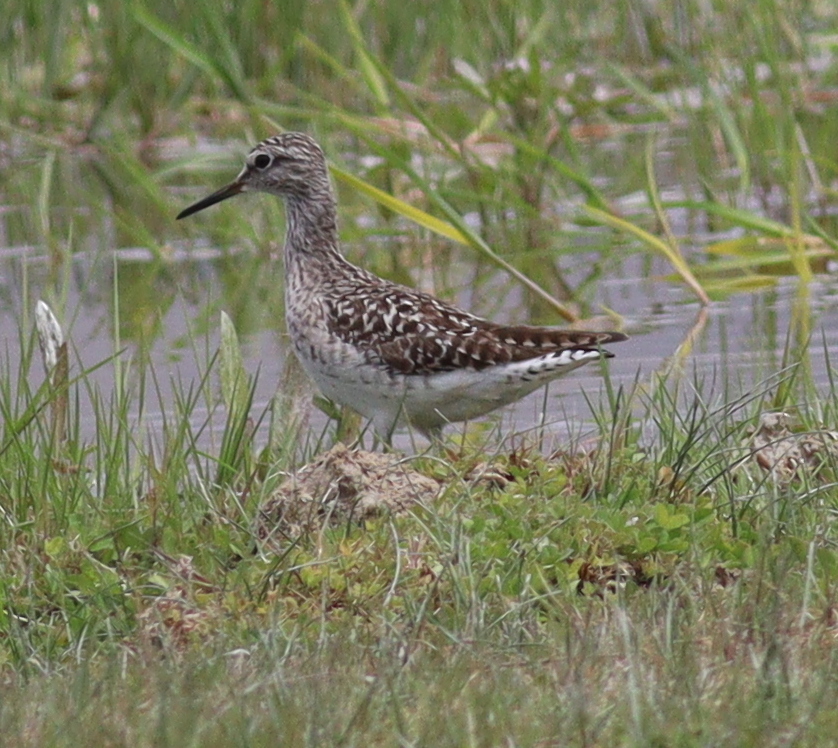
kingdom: Animalia
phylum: Chordata
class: Aves
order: Charadriiformes
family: Scolopacidae
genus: Tringa
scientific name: Tringa glareola
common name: Wood sandpiper
